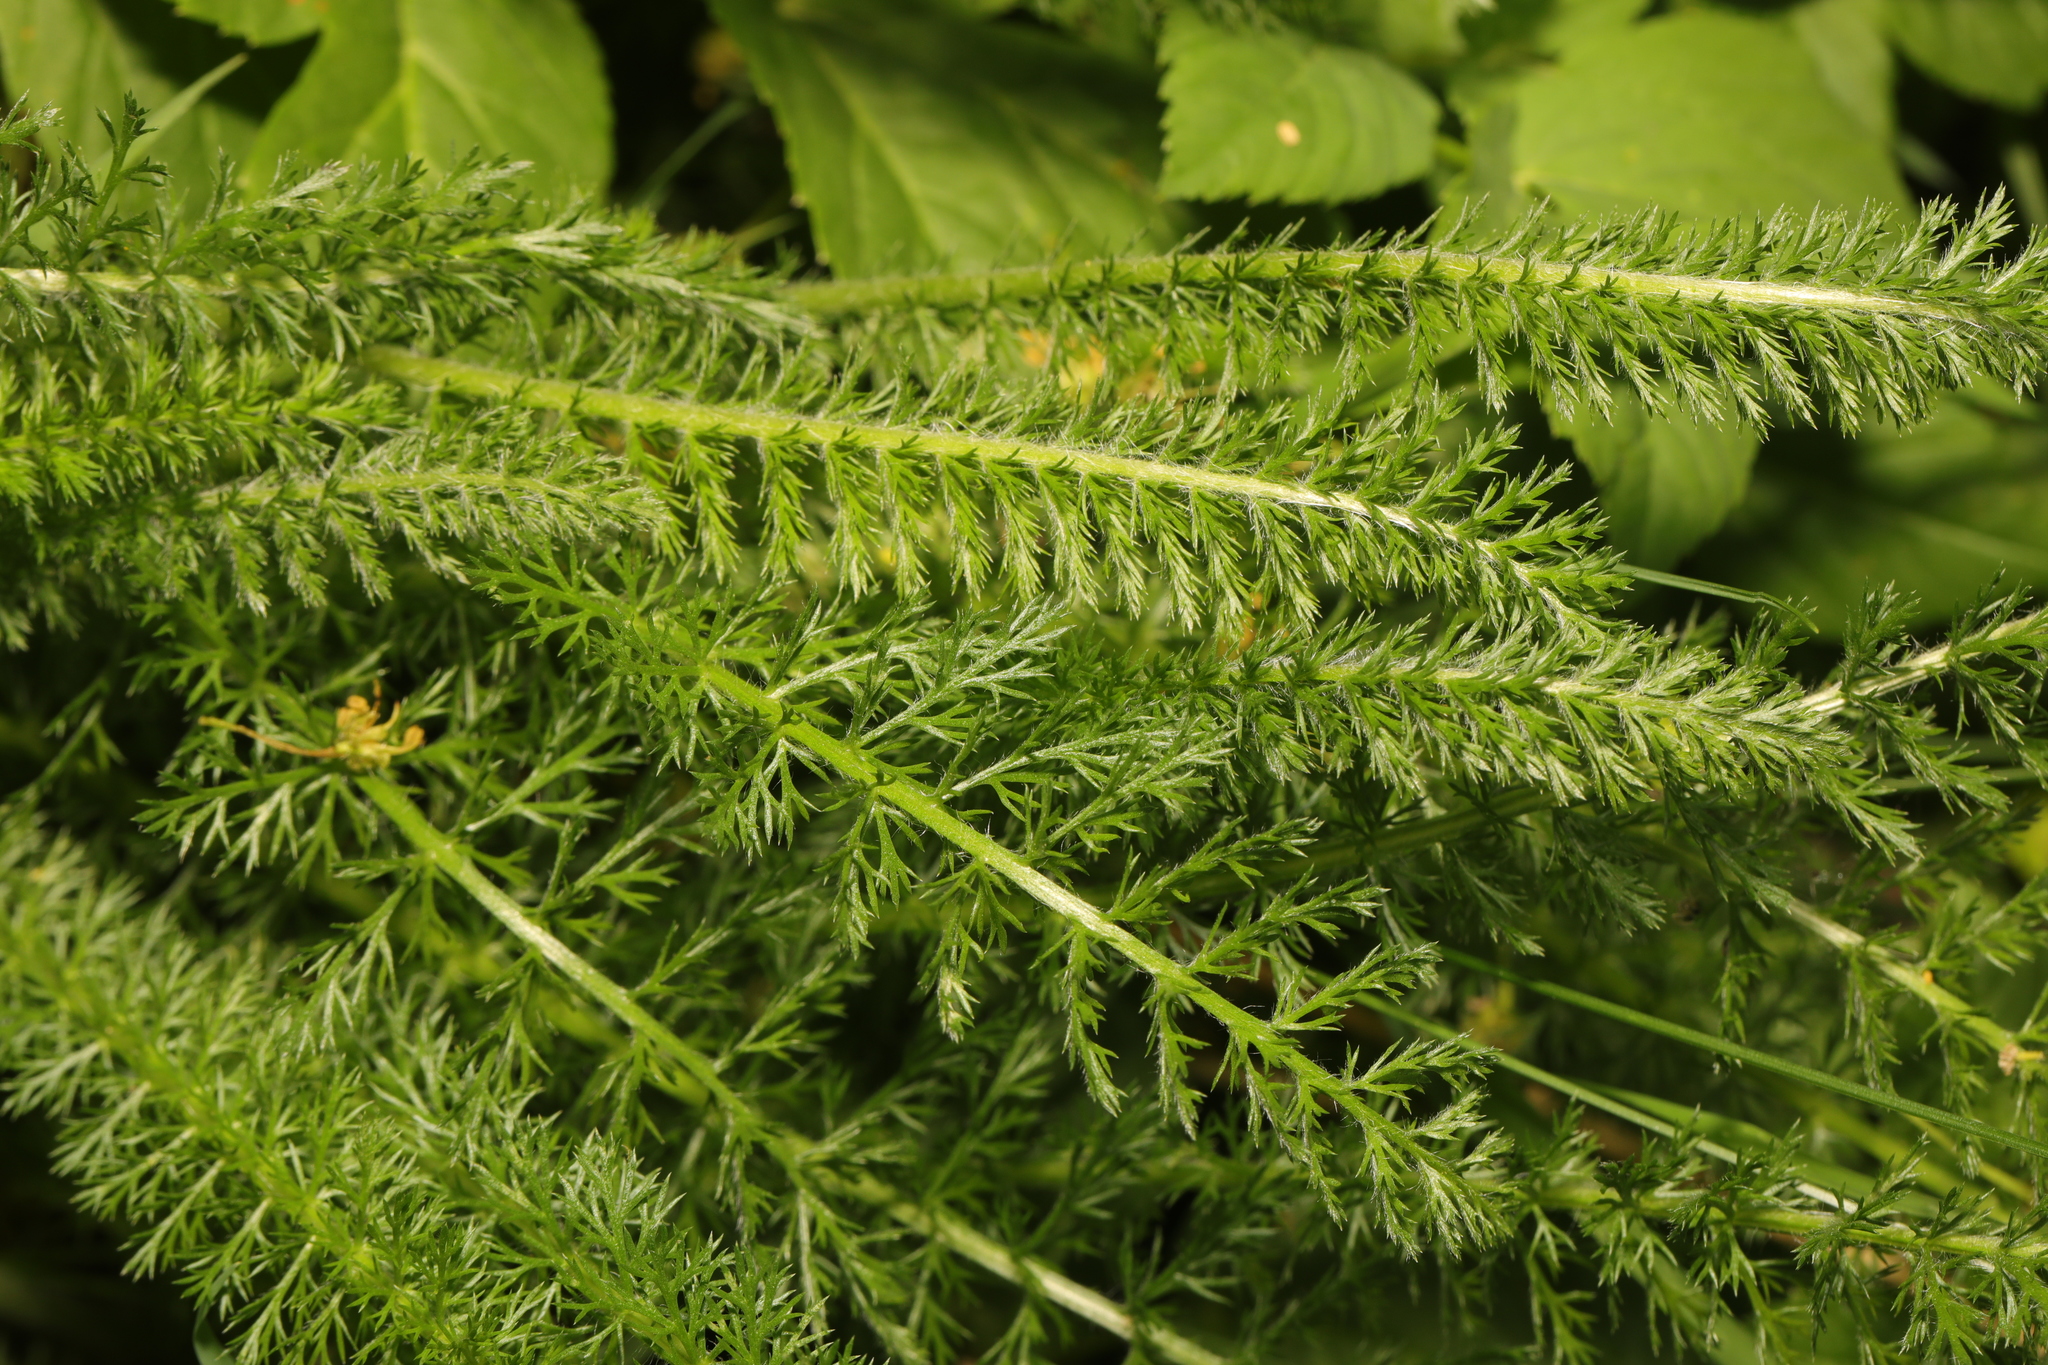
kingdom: Plantae
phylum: Tracheophyta
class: Magnoliopsida
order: Asterales
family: Asteraceae
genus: Achillea
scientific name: Achillea millefolium
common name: Yarrow
